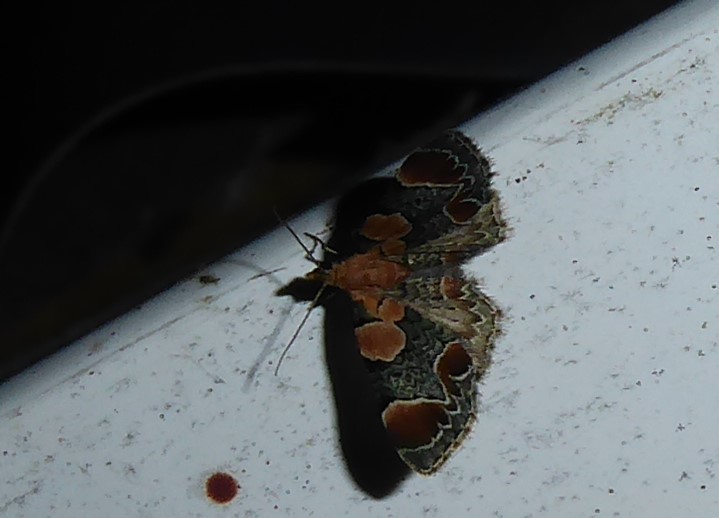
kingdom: Animalia
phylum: Arthropoda
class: Insecta
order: Lepidoptera
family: Geometridae
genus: Chloroclystis
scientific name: Chloroclystis
